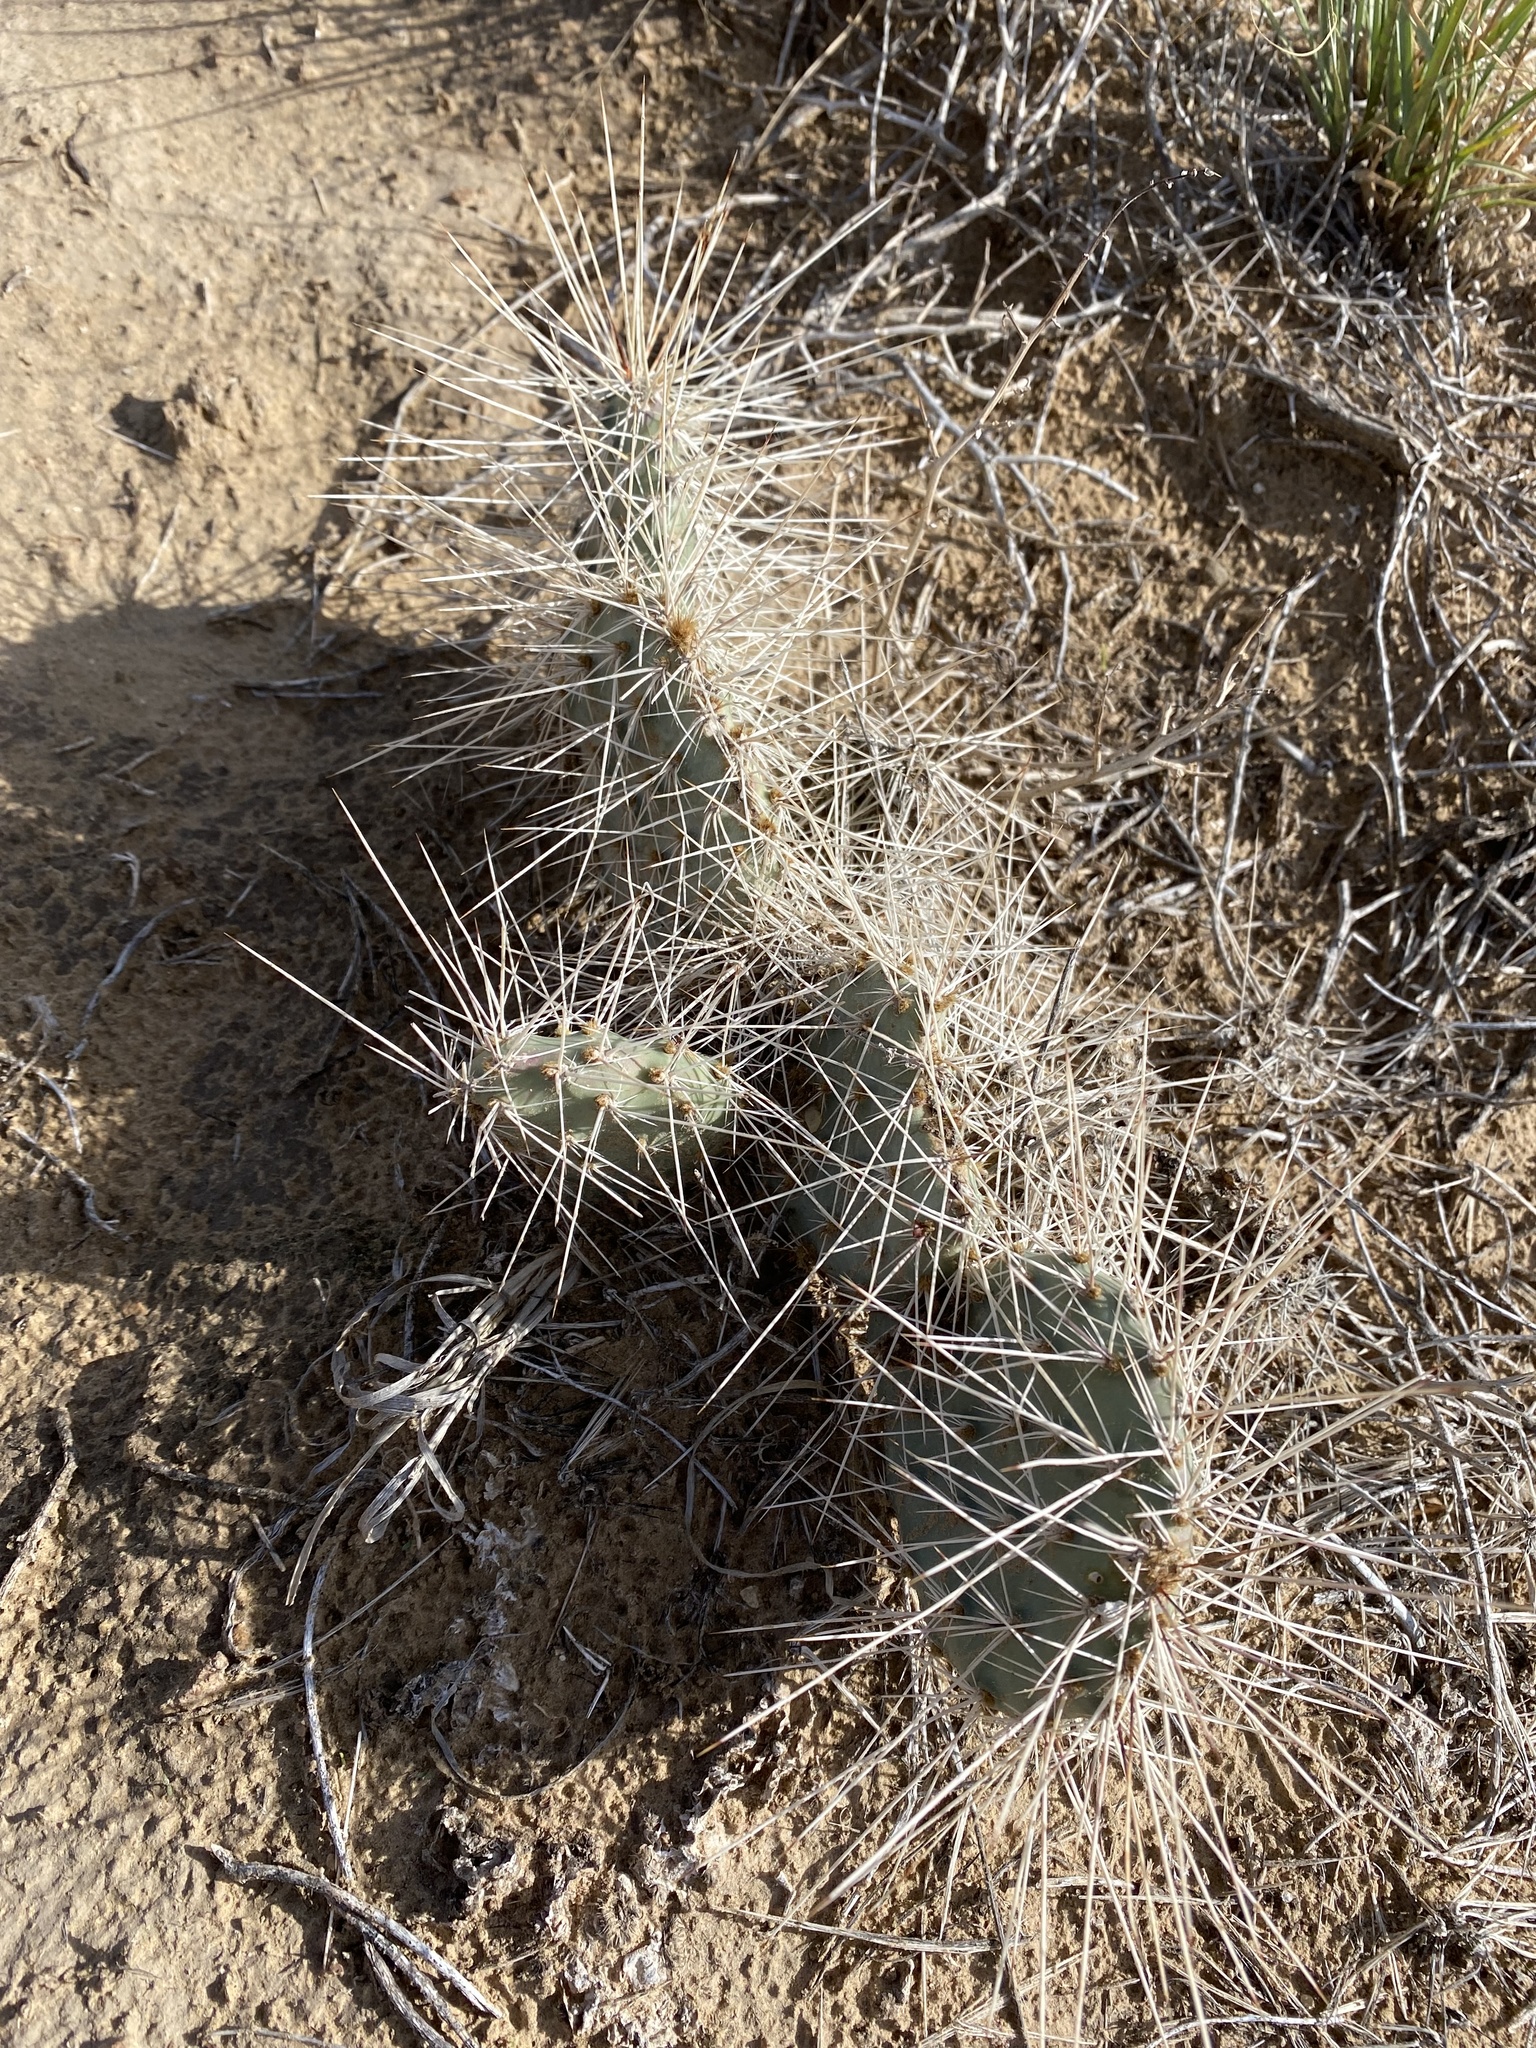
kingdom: Plantae
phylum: Tracheophyta
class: Magnoliopsida
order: Caryophyllales
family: Cactaceae
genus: Opuntia
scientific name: Opuntia polyacantha
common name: Plains prickly-pear
